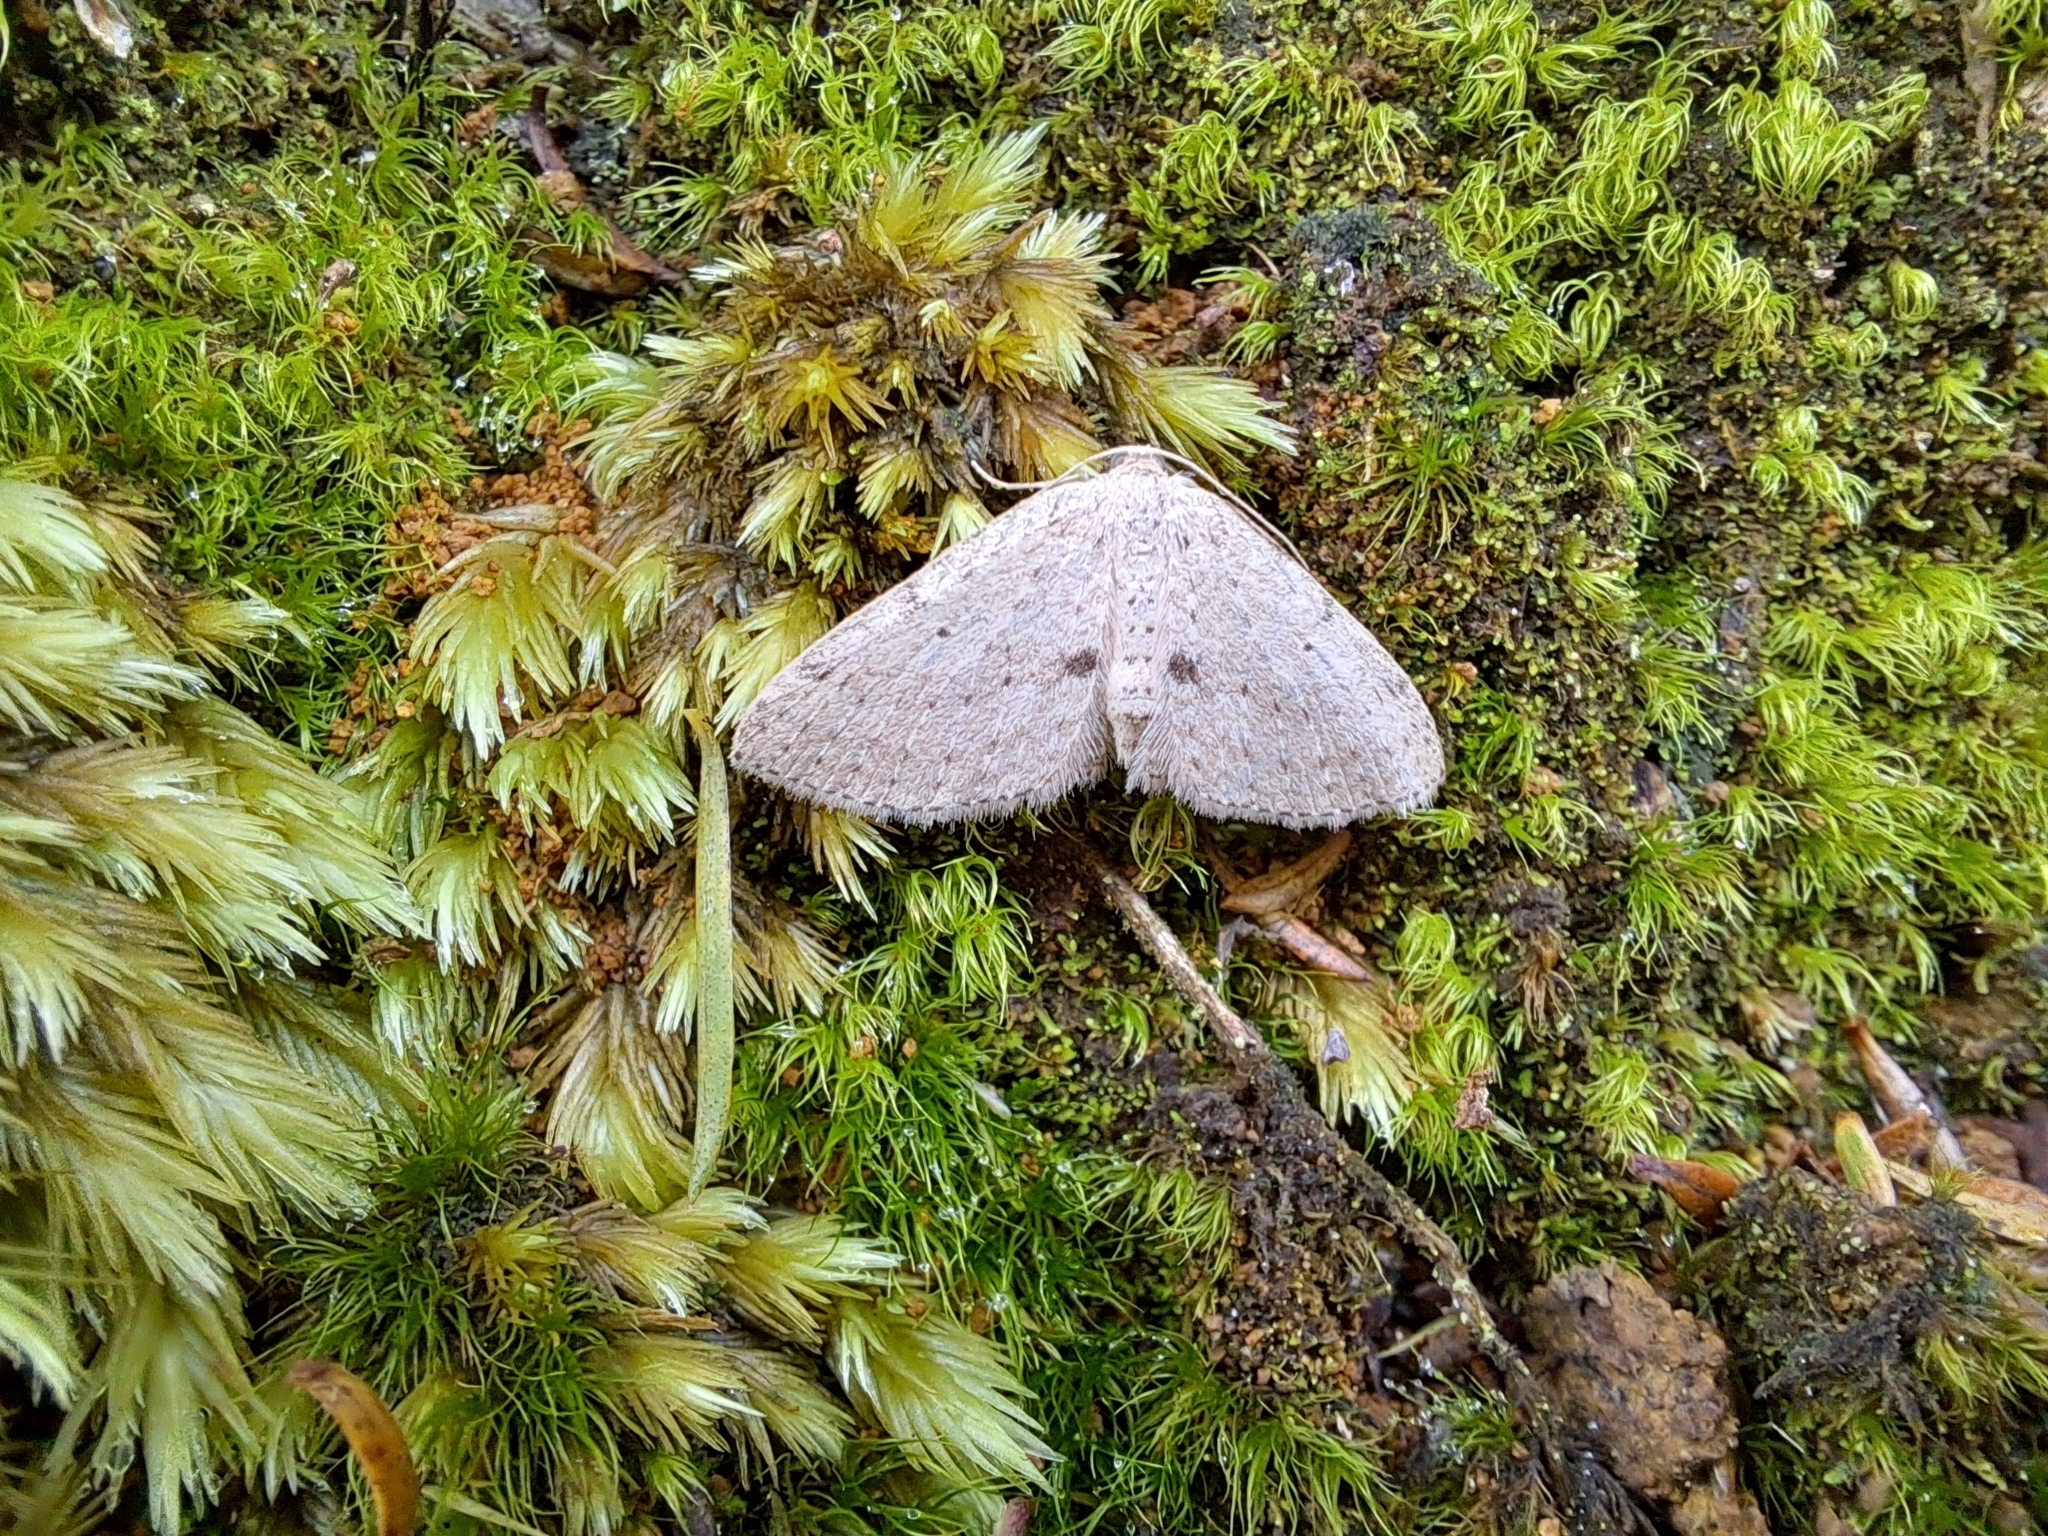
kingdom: Animalia
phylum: Arthropoda
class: Insecta
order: Lepidoptera
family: Geometridae
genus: Poecilasthena
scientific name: Poecilasthena schistaria
